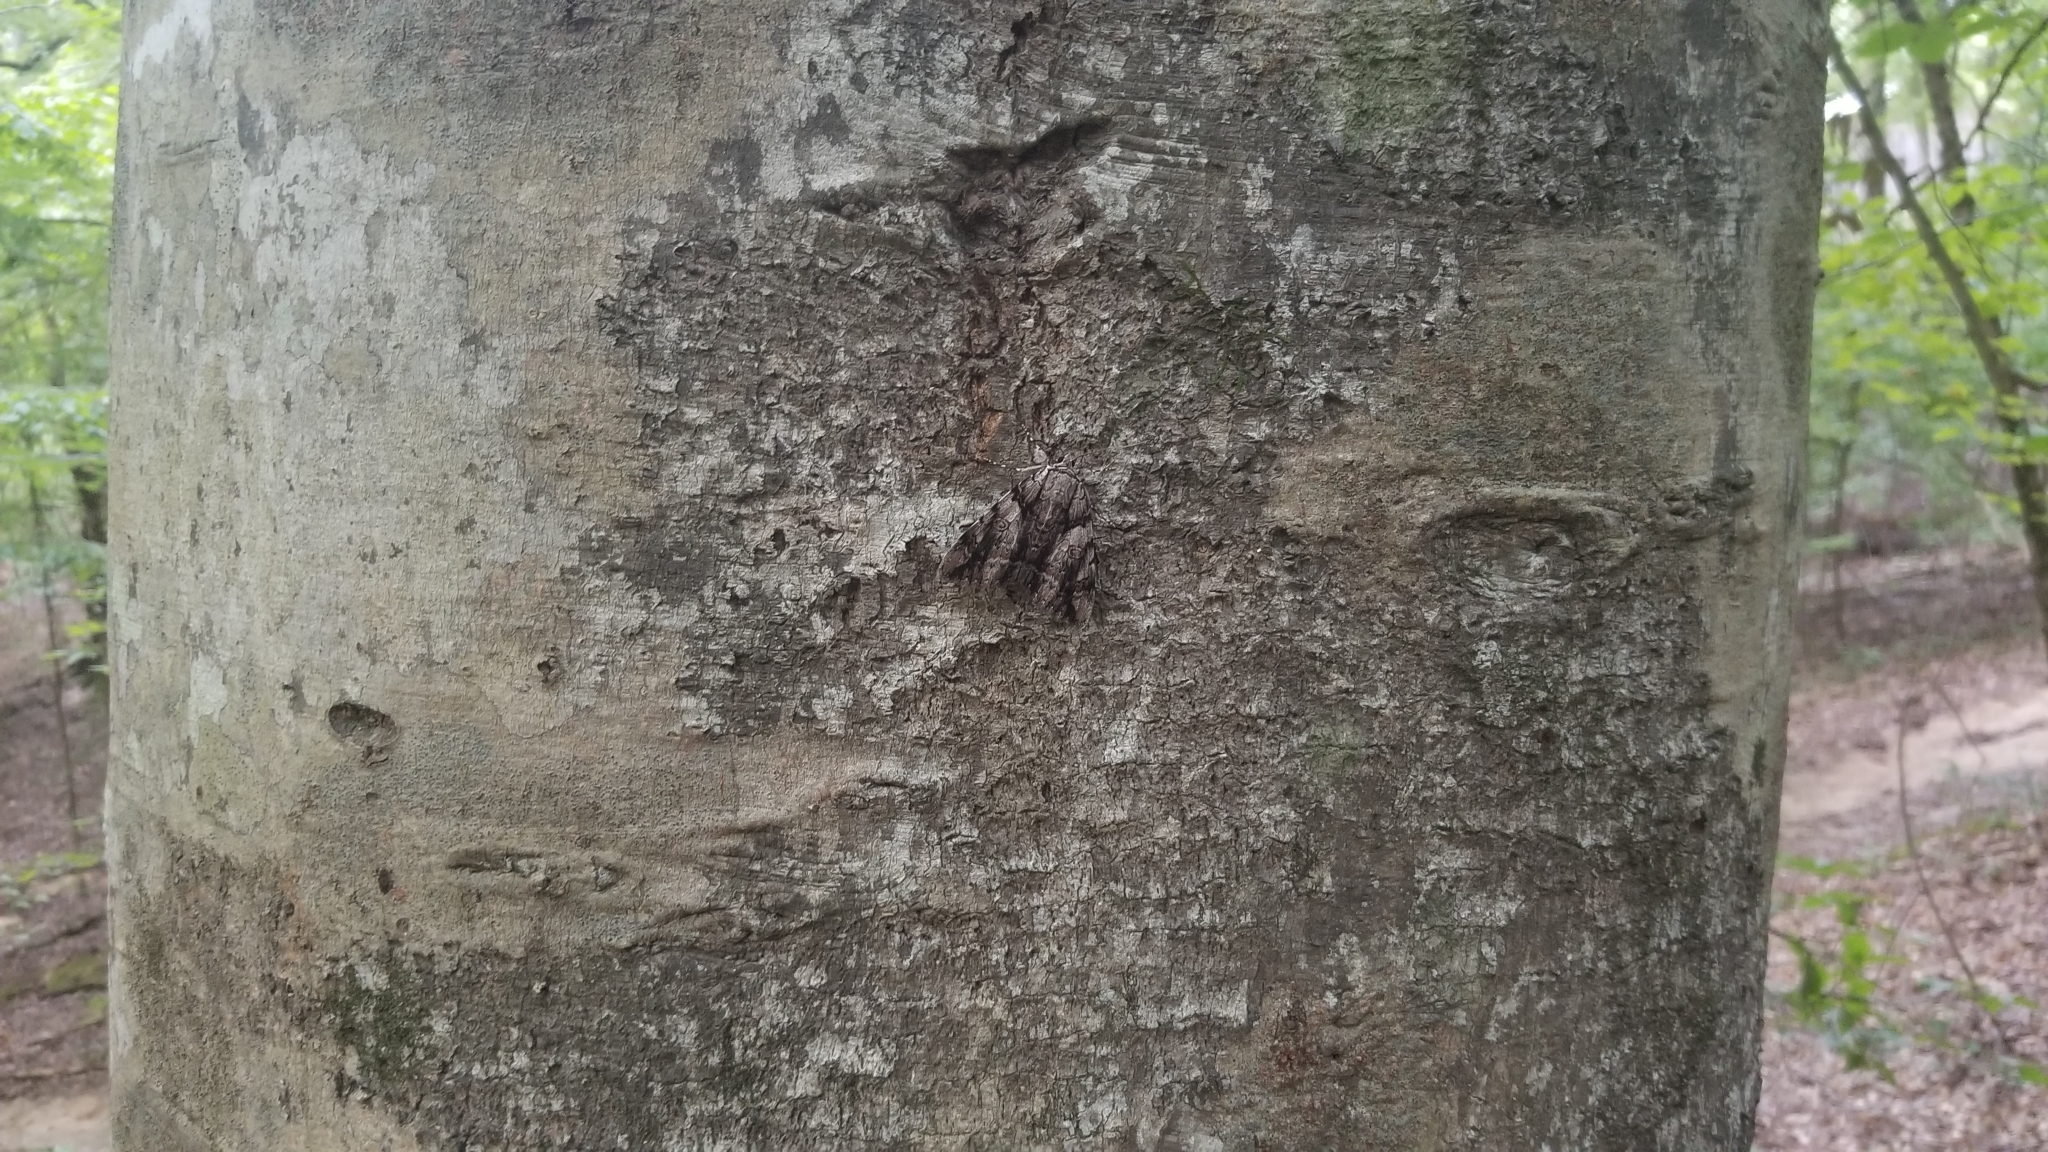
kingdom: Animalia
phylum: Arthropoda
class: Insecta
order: Lepidoptera
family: Erebidae
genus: Catocala
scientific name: Catocala vidua
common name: The widow
